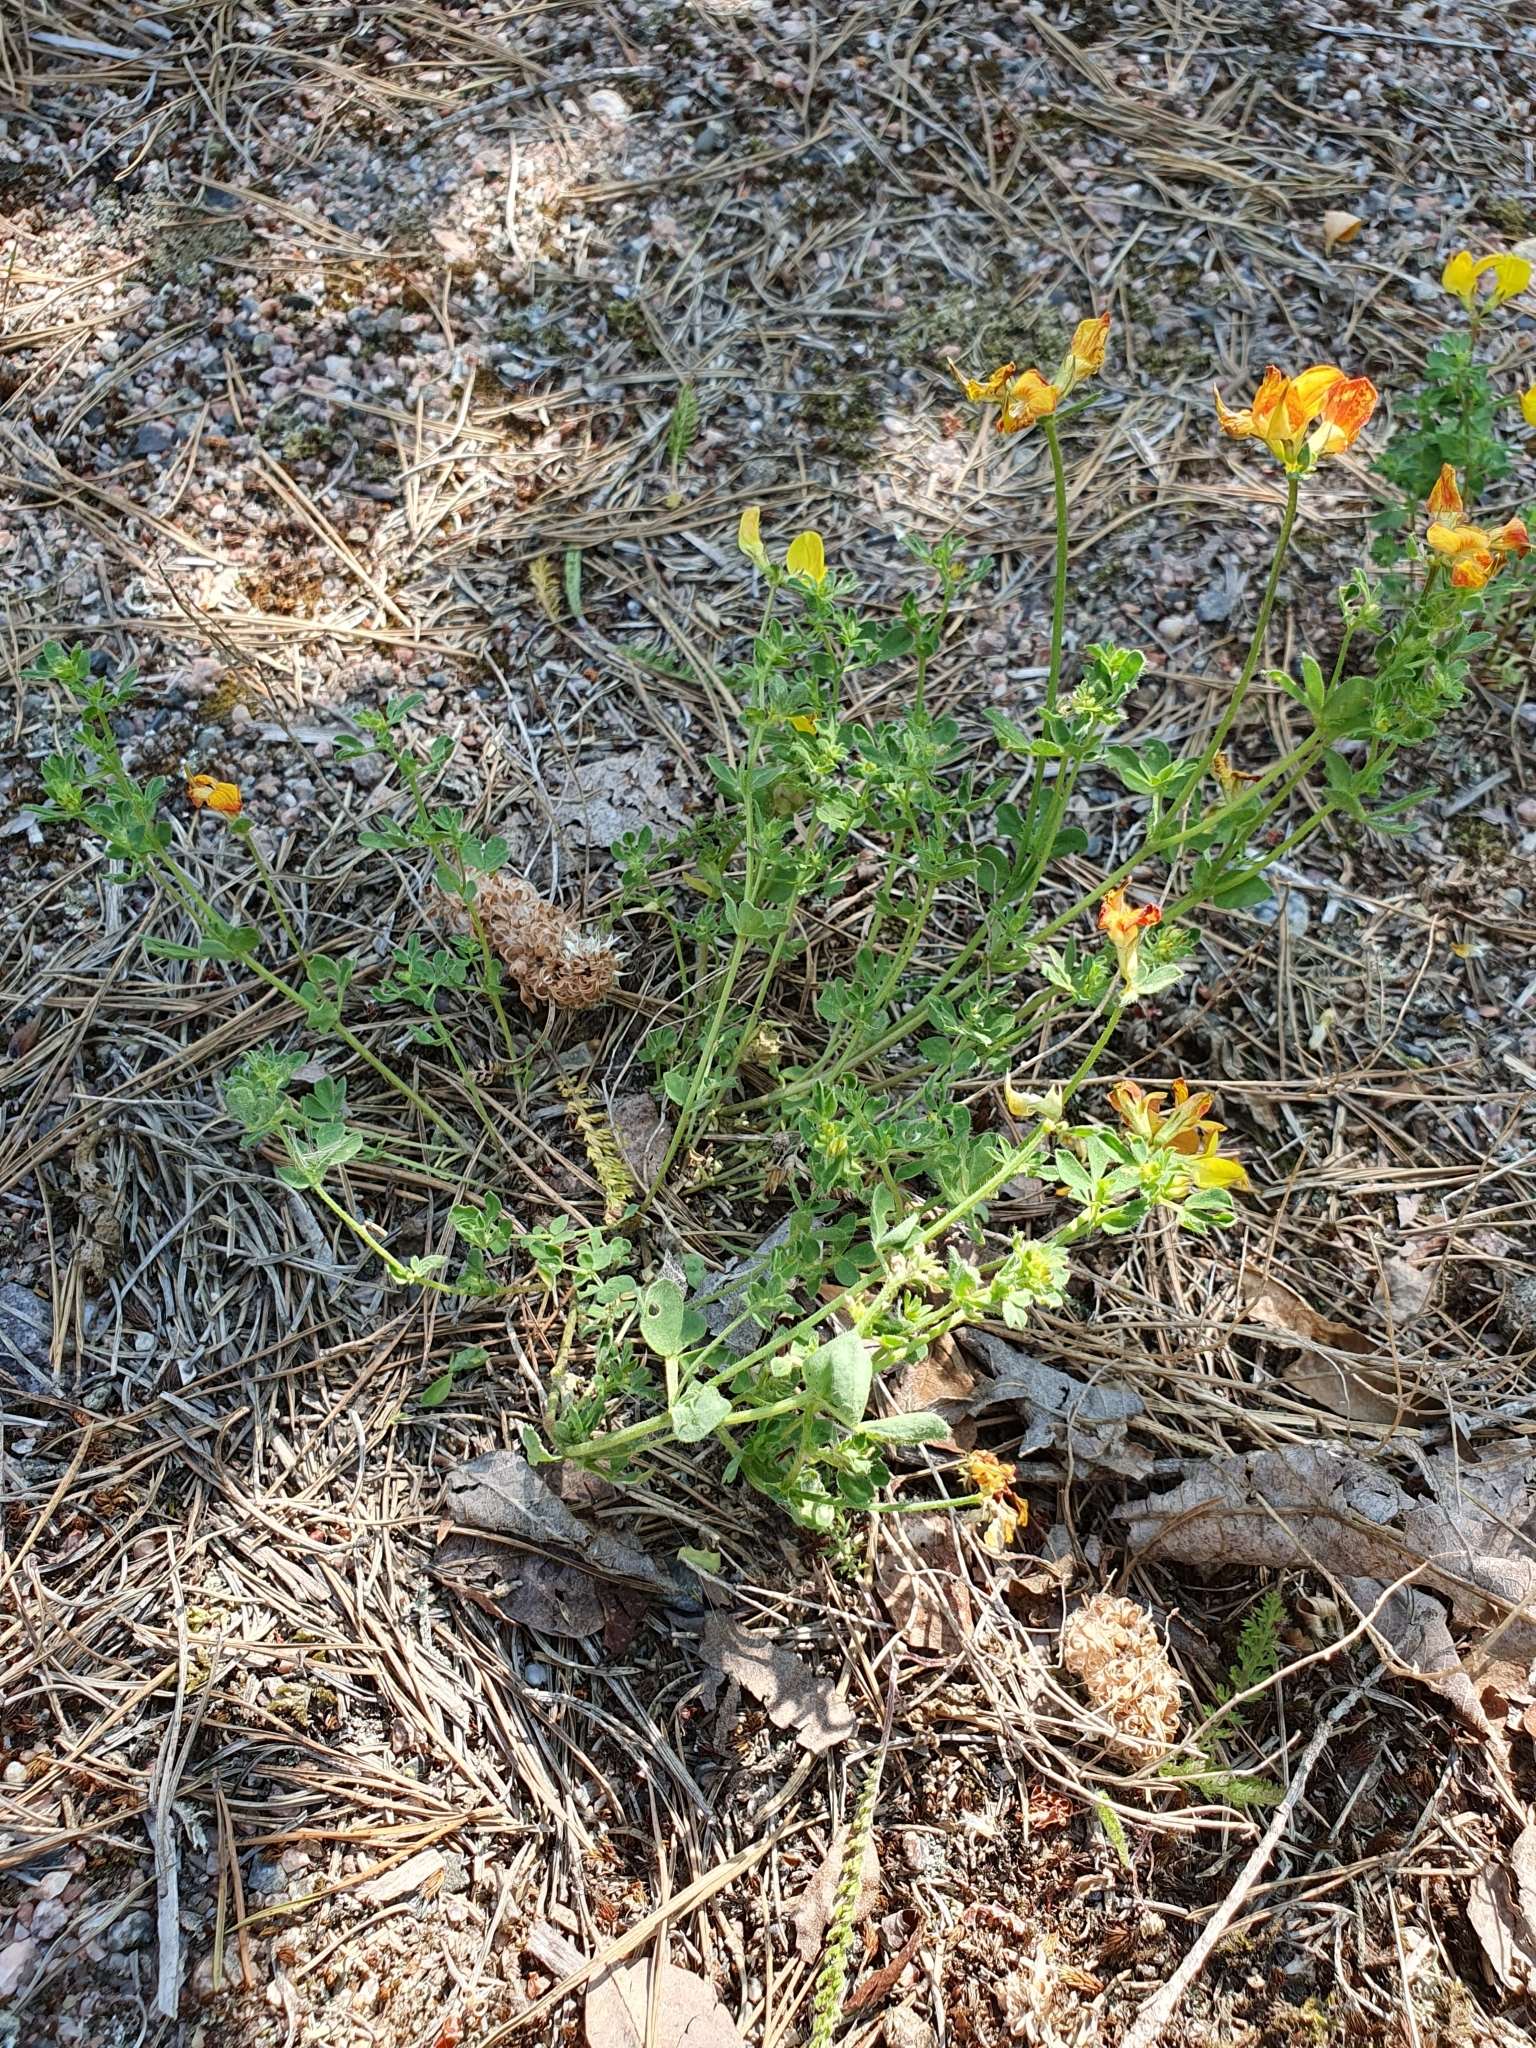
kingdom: Plantae
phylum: Tracheophyta
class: Magnoliopsida
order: Fabales
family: Fabaceae
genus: Lotus
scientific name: Lotus corniculatus
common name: Common bird's-foot-trefoil
